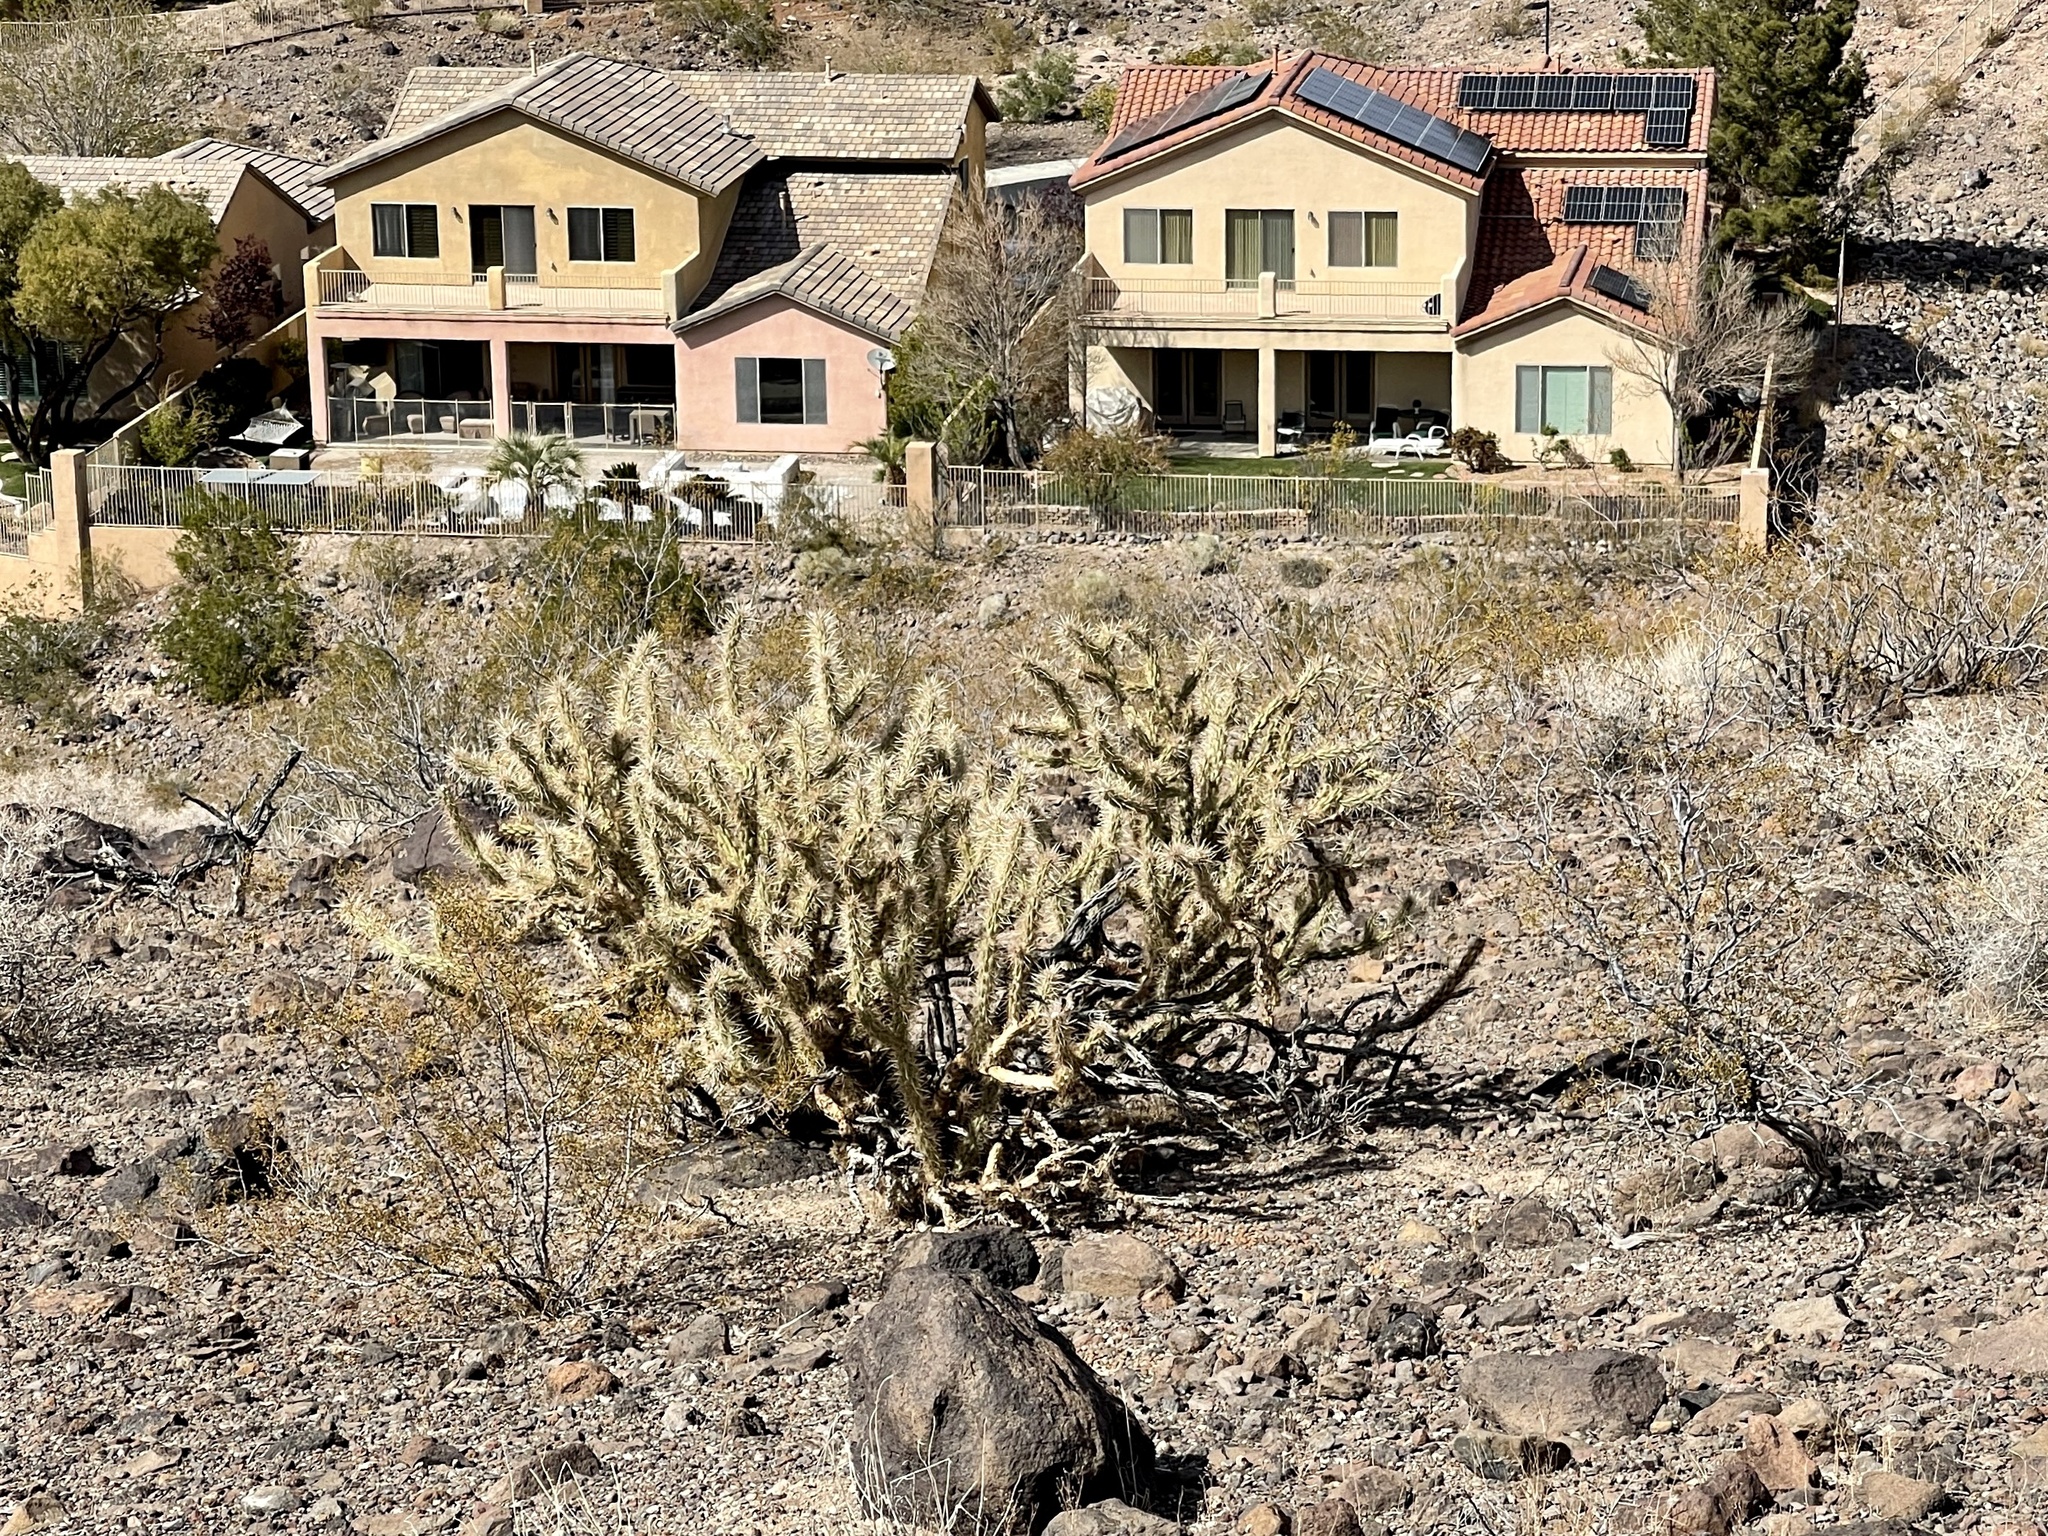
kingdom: Plantae
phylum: Tracheophyta
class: Magnoliopsida
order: Caryophyllales
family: Cactaceae
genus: Cylindropuntia
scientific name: Cylindropuntia acanthocarpa
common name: Buckhorn cholla
